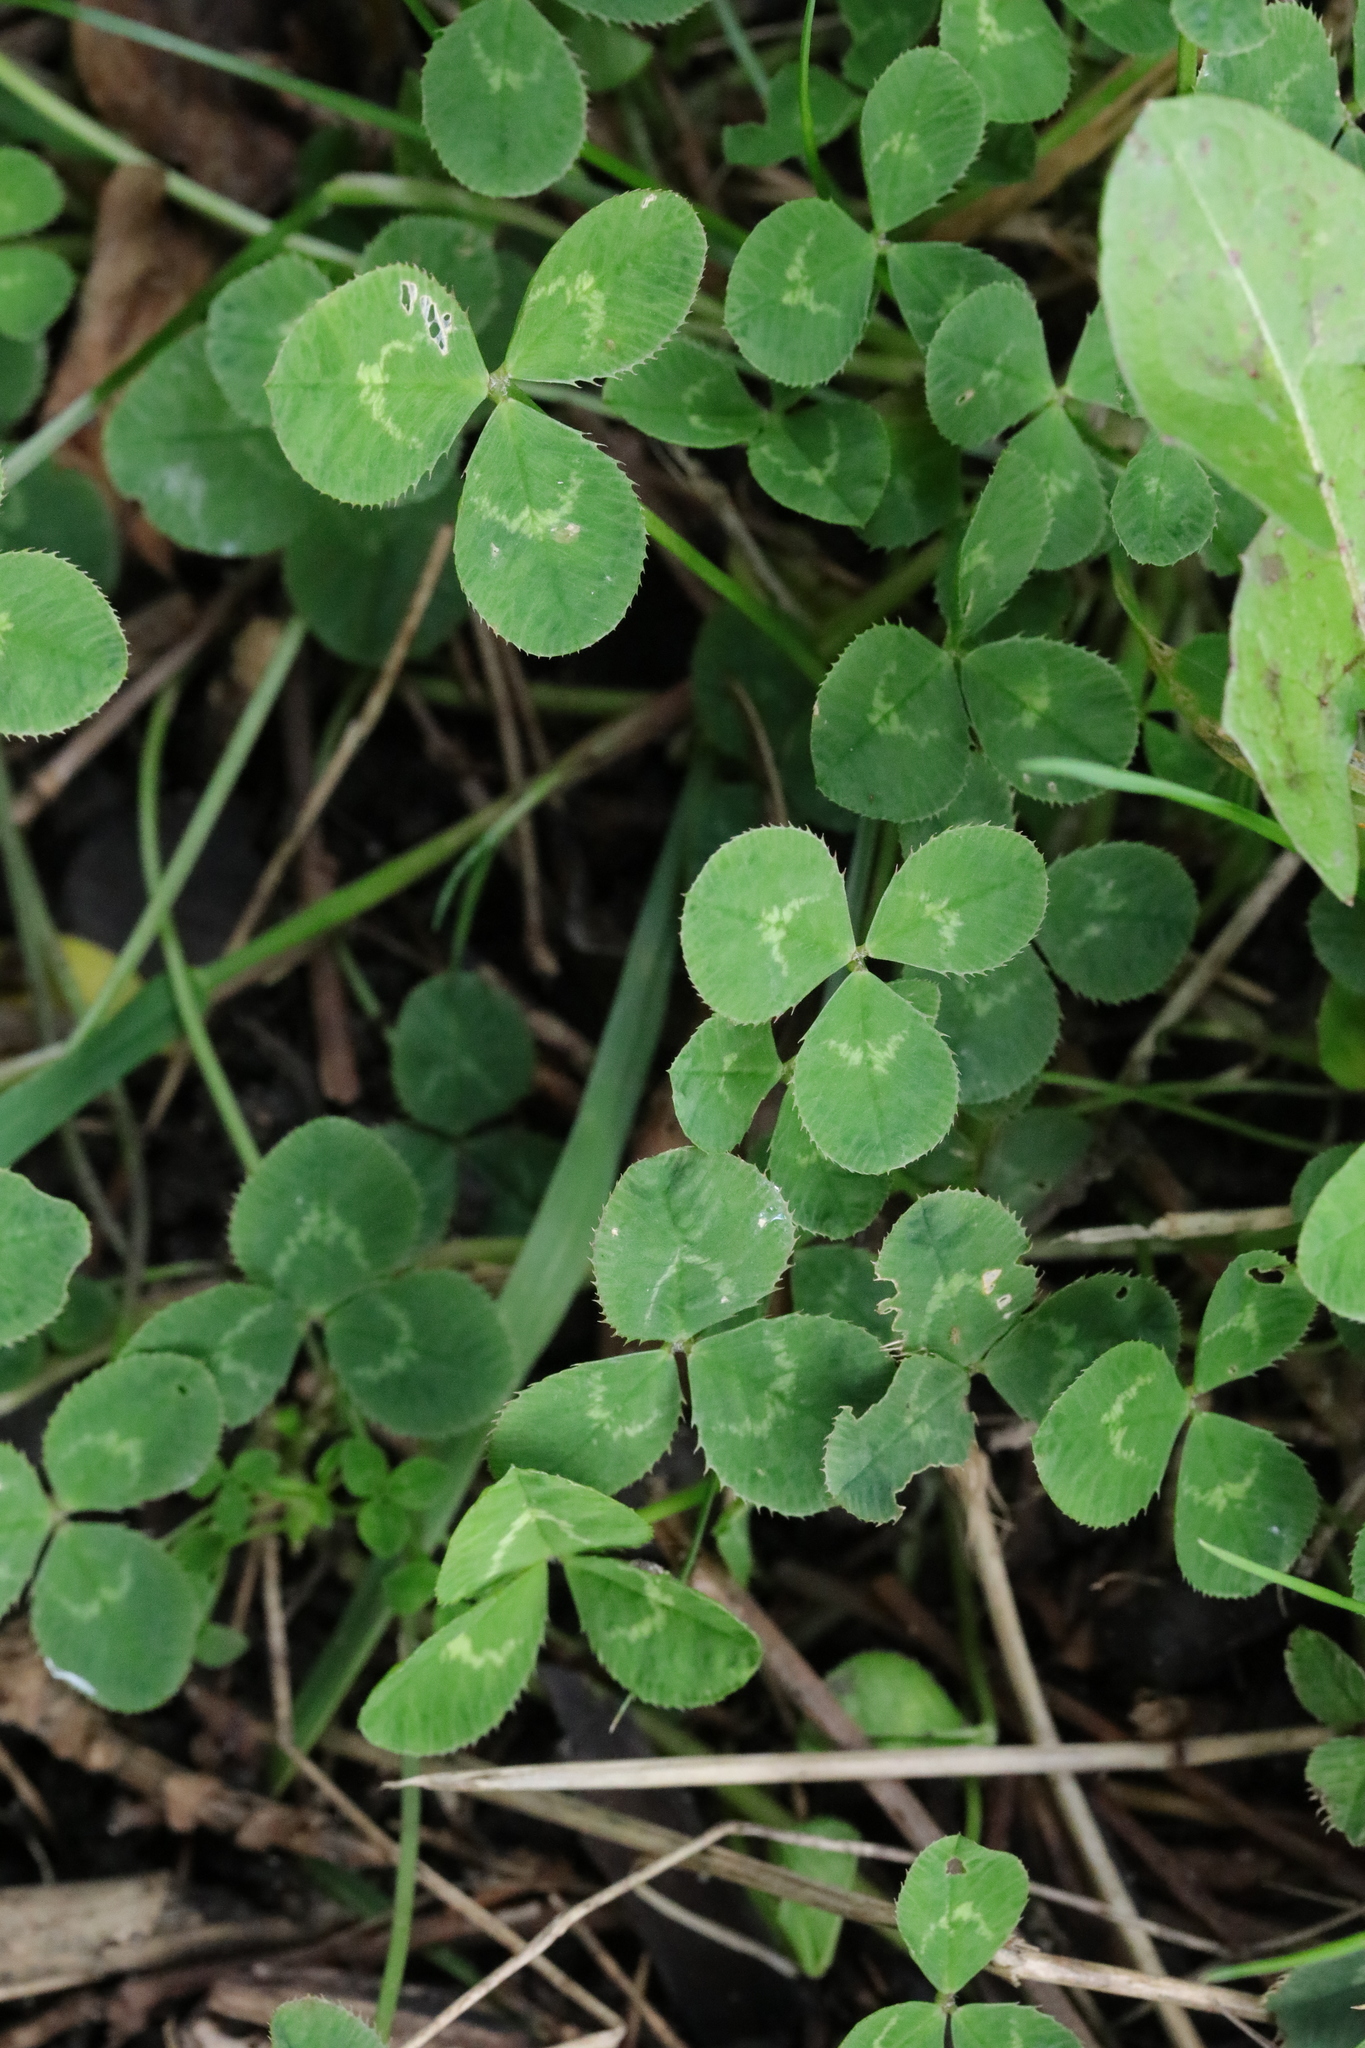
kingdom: Plantae
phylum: Tracheophyta
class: Magnoliopsida
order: Fabales
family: Fabaceae
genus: Trifolium
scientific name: Trifolium repens
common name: White clover
